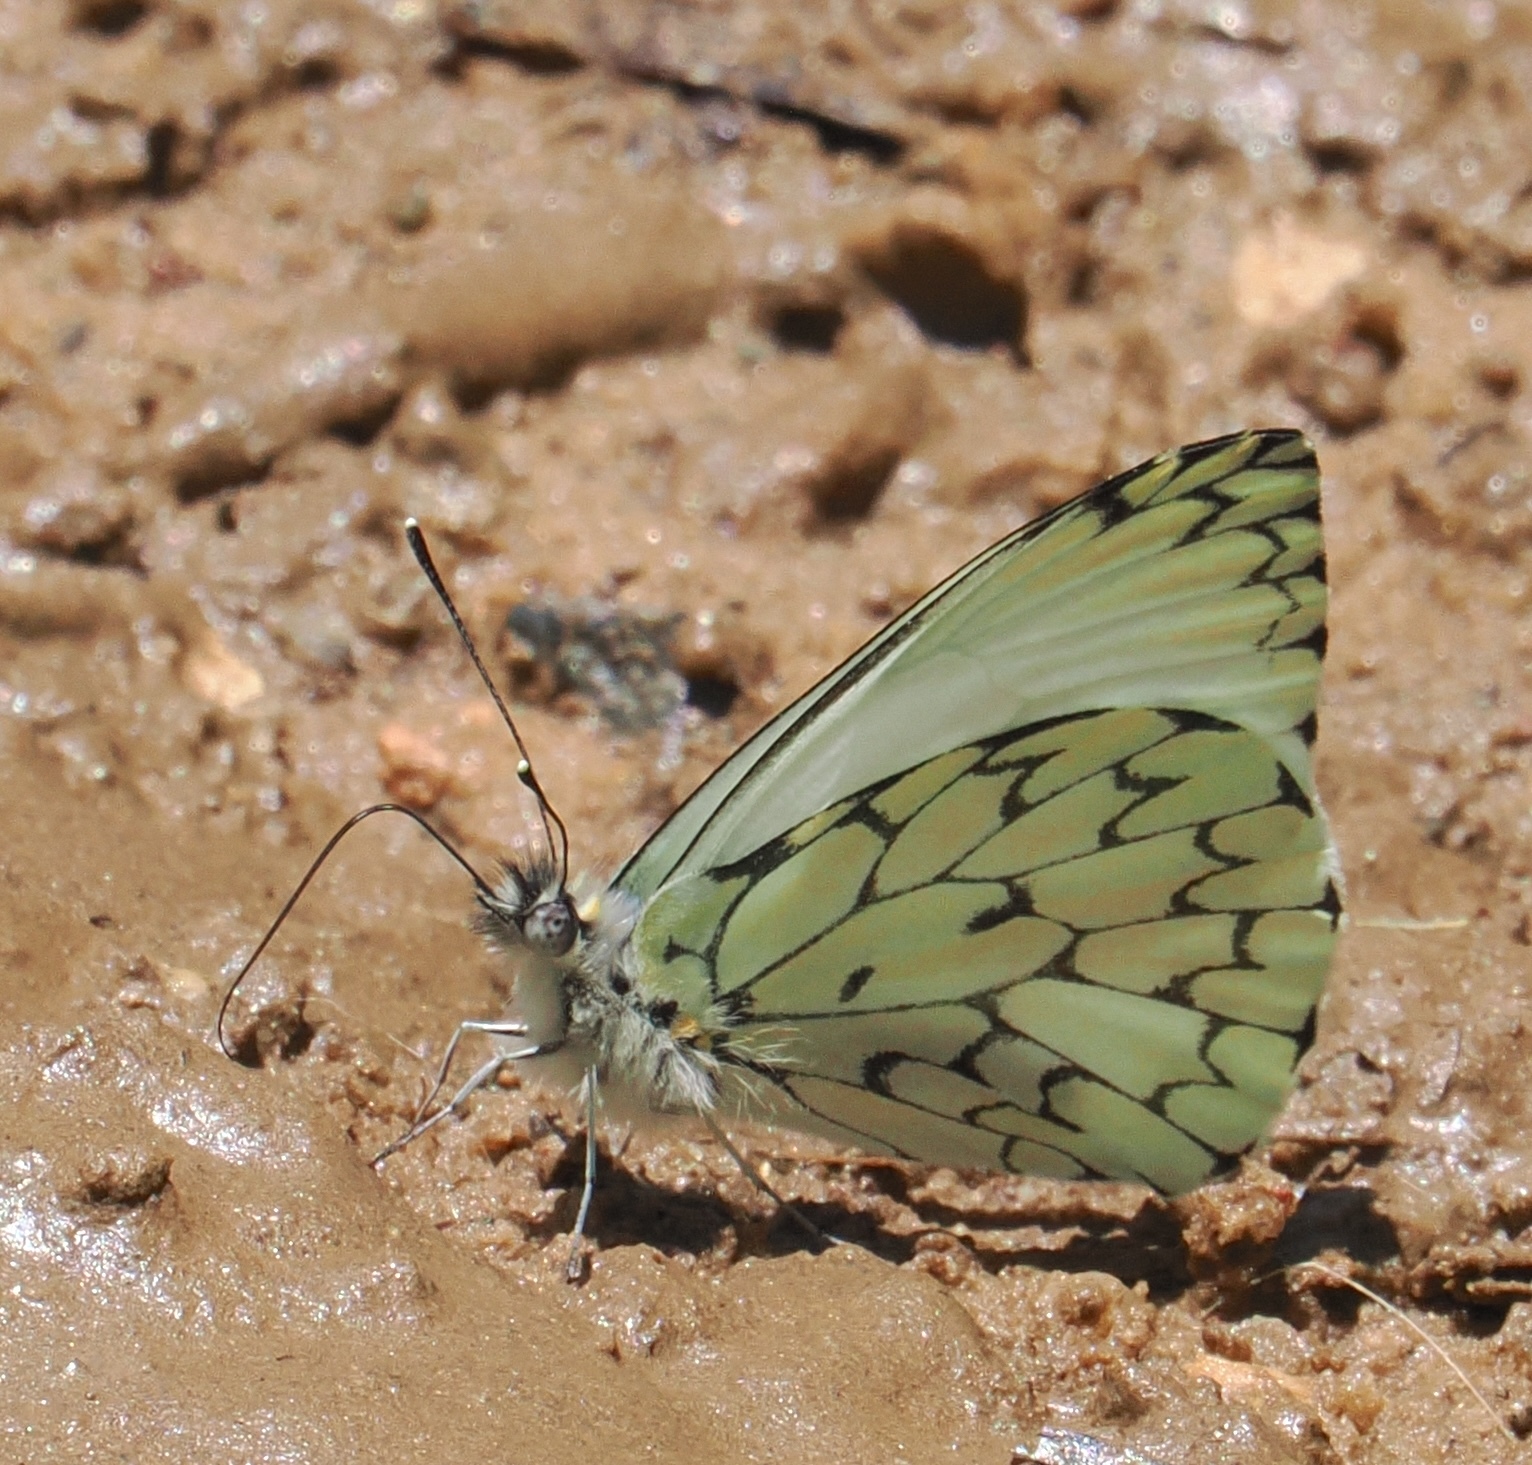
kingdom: Animalia
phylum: Arthropoda
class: Insecta
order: Lepidoptera
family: Pieridae
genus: Hesperocharis
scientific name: Hesperocharis erota
